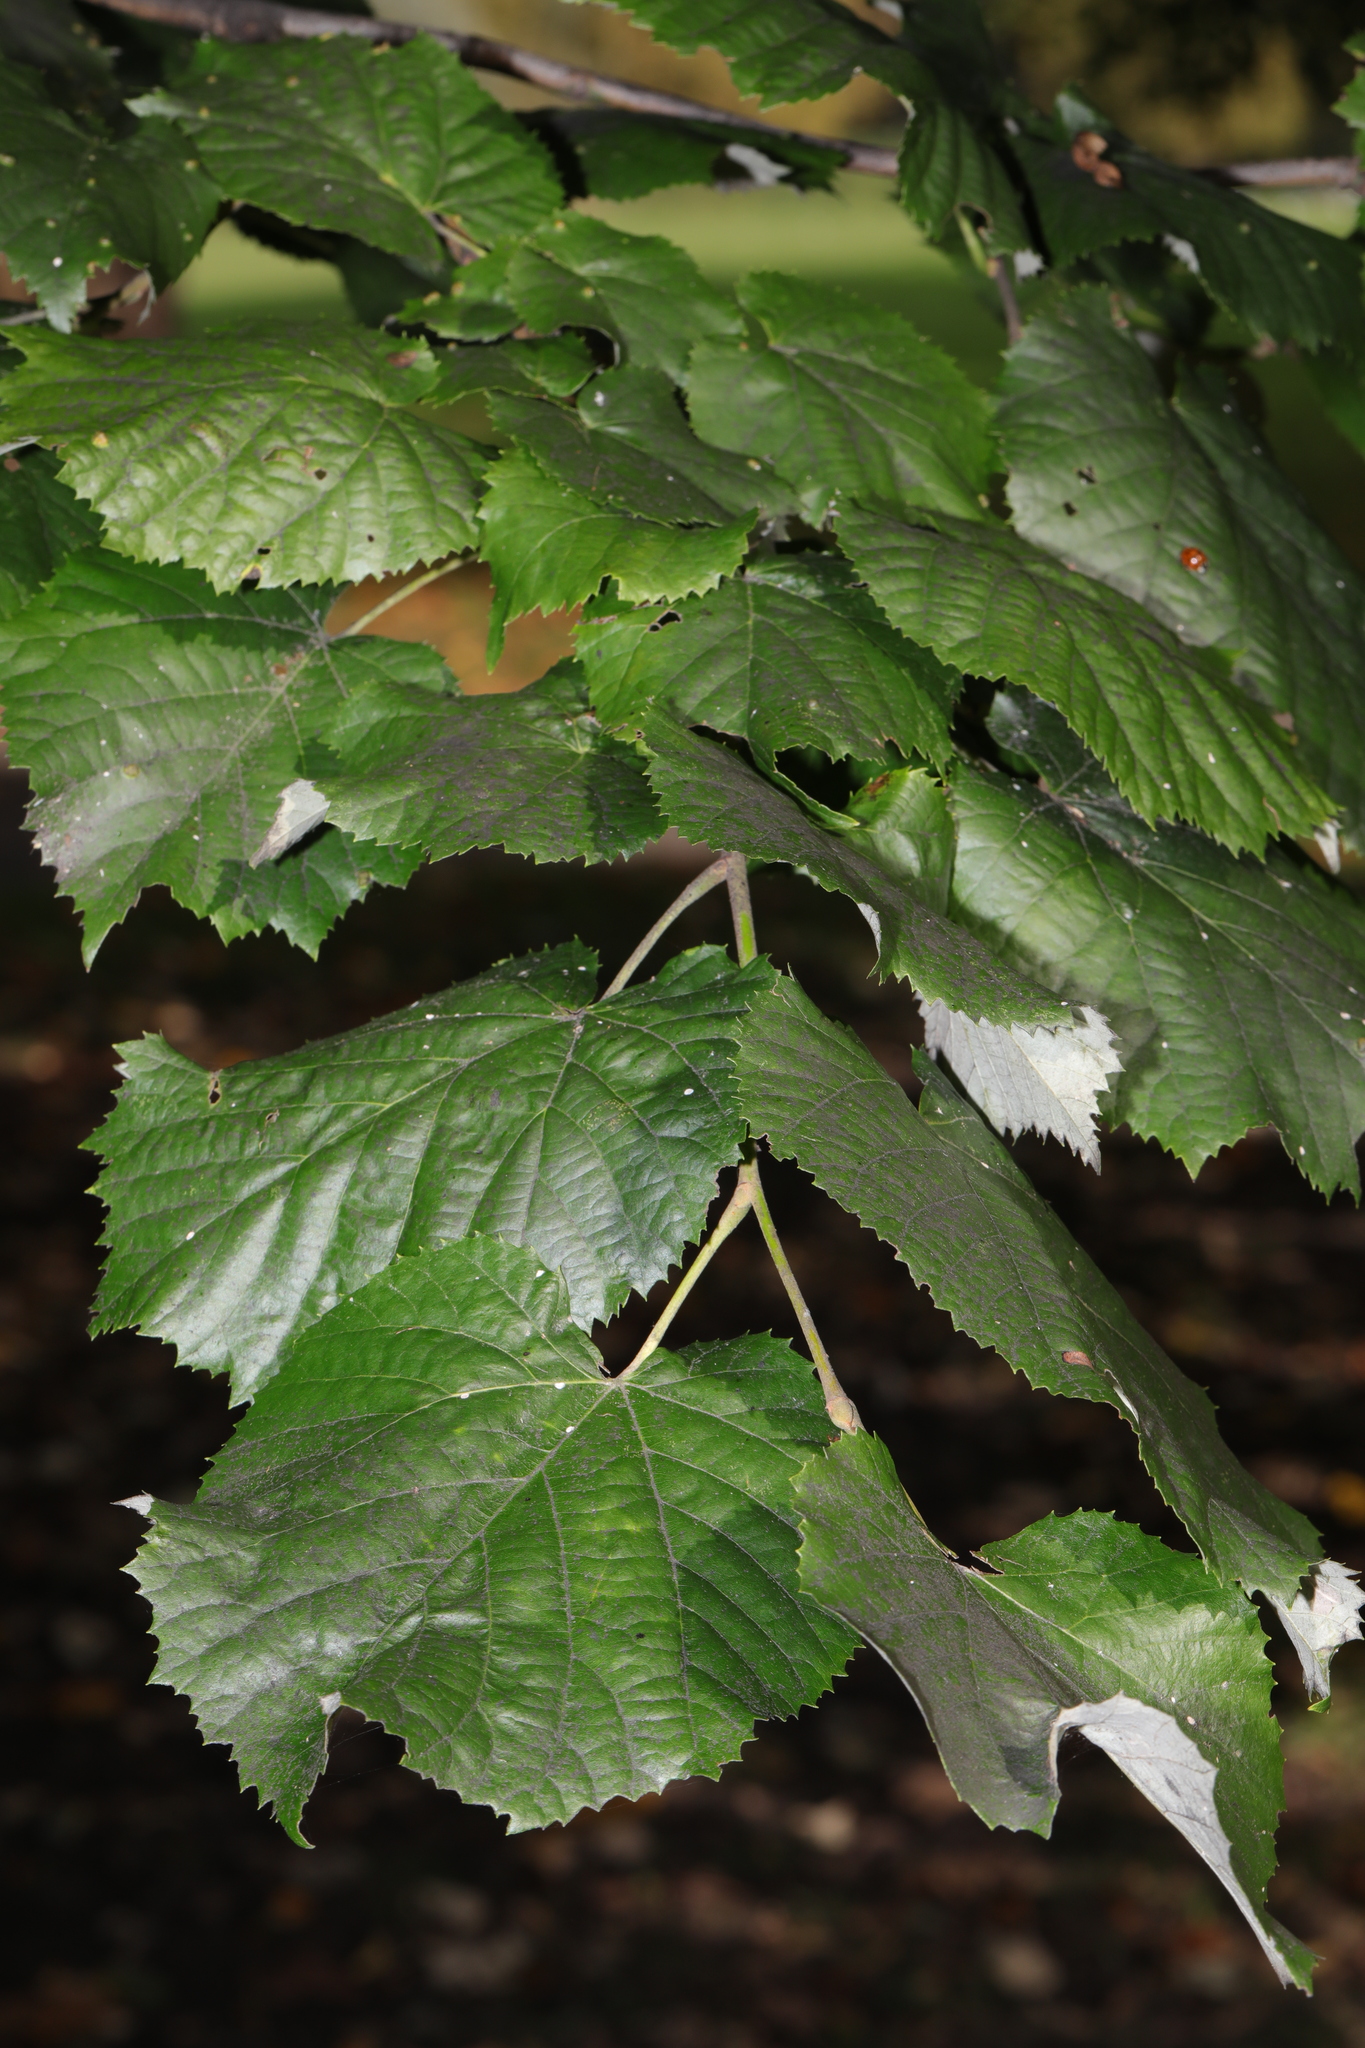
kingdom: Plantae
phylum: Tracheophyta
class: Magnoliopsida
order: Malvales
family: Malvaceae
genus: Tilia
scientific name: Tilia tomentosa
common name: Silver lime
